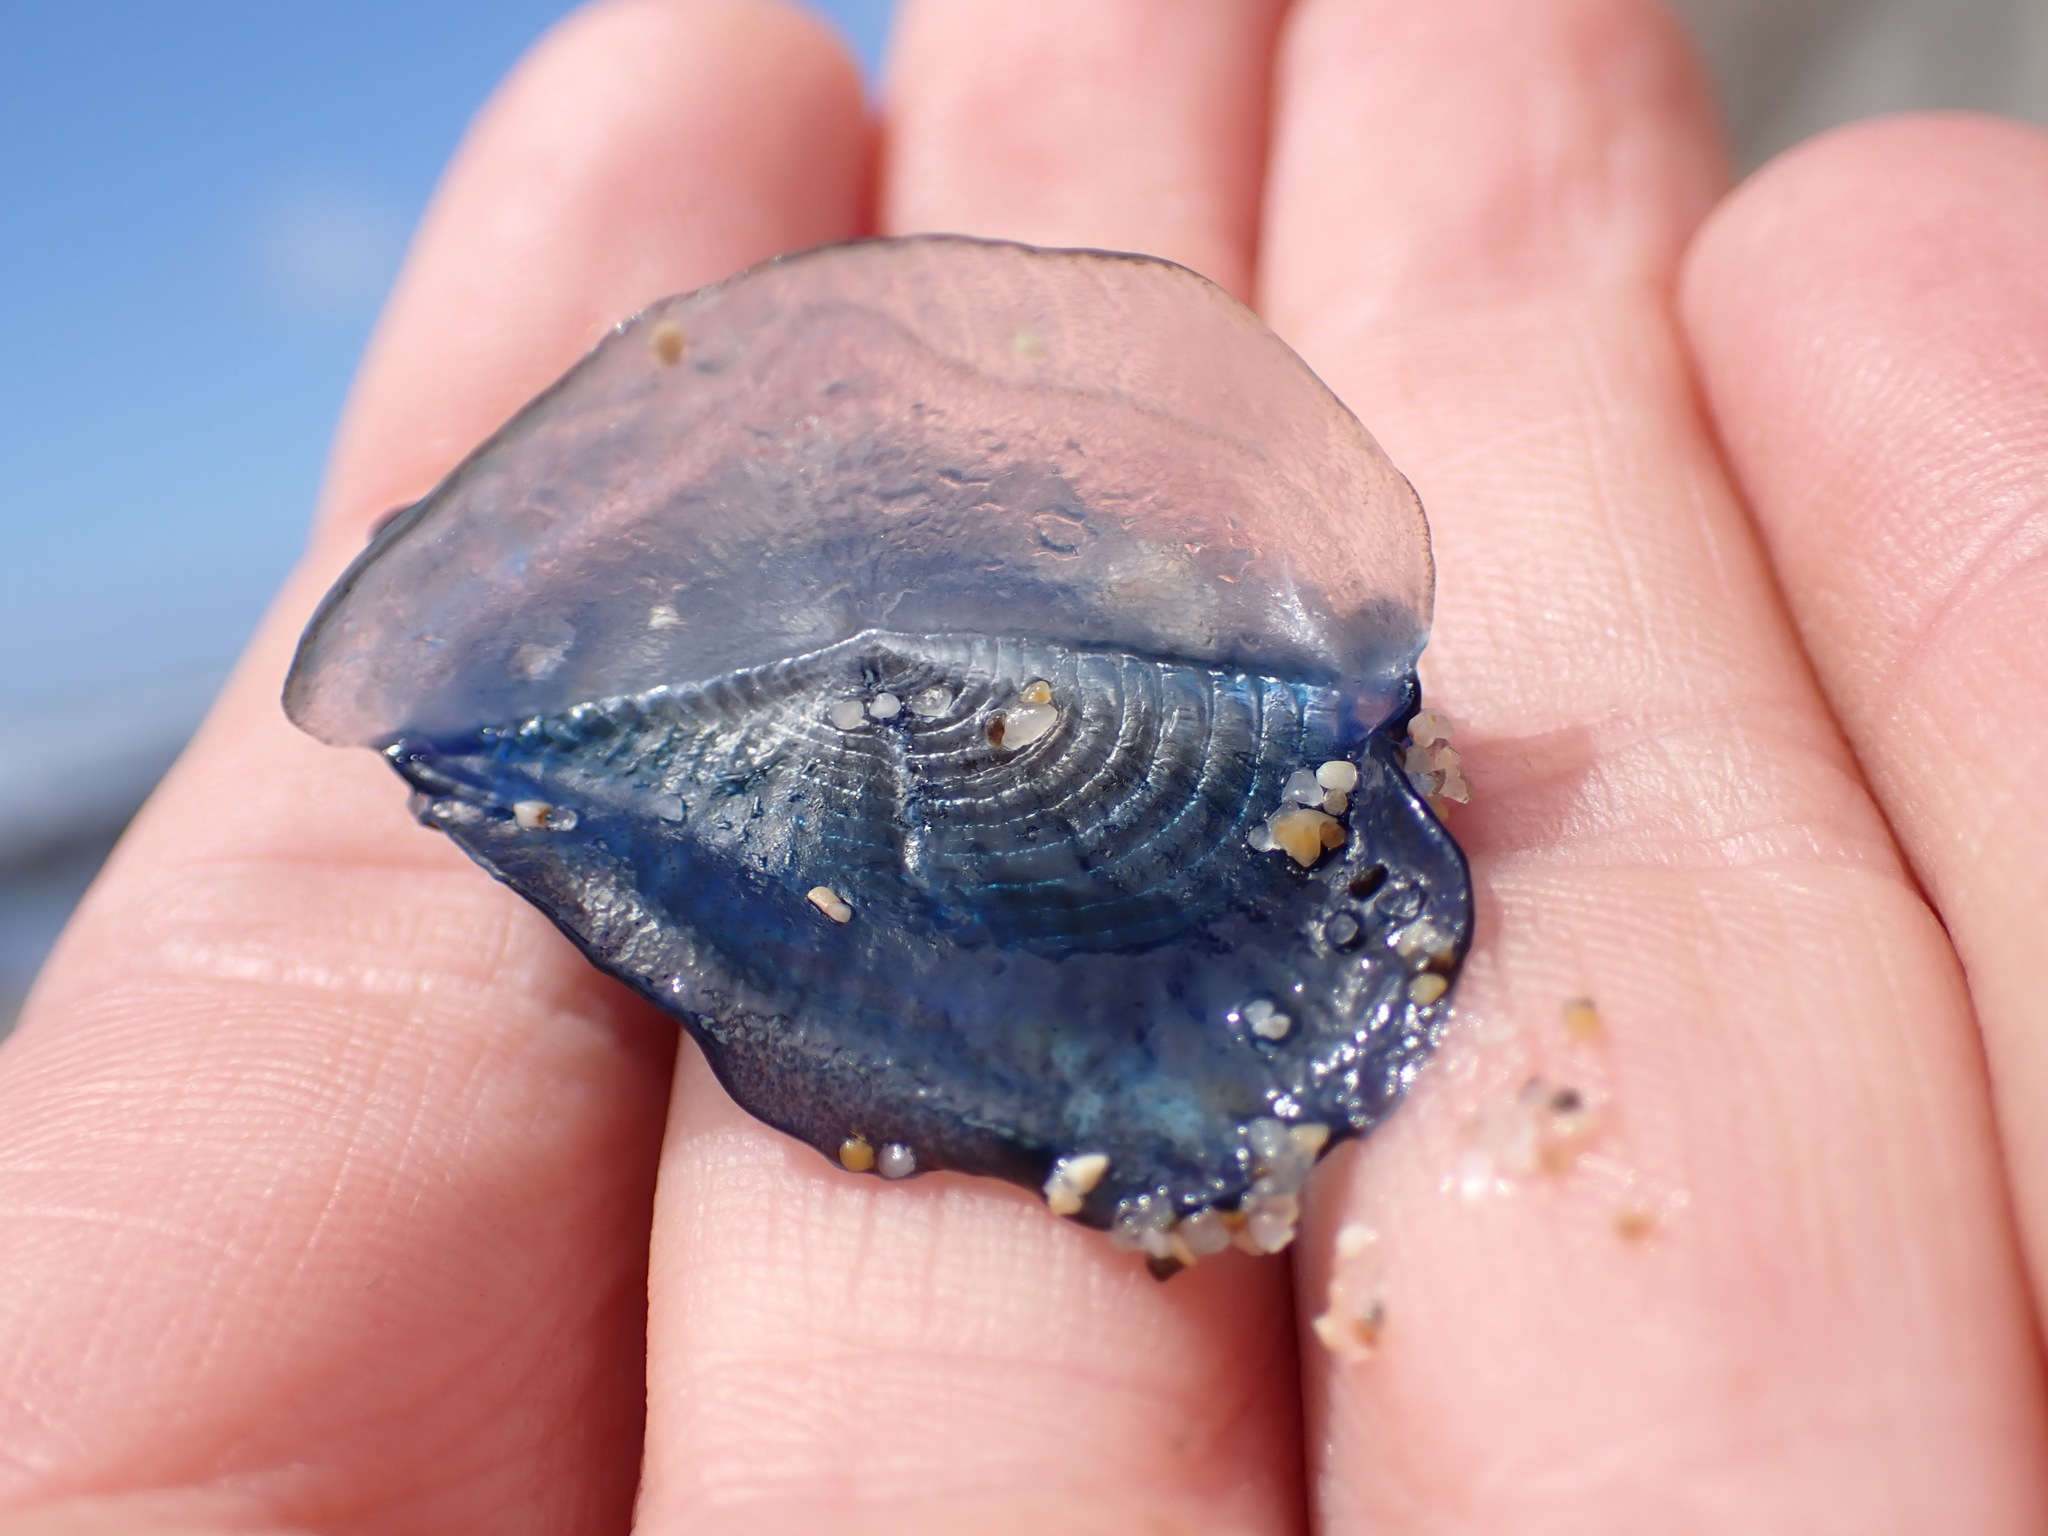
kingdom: Animalia
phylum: Cnidaria
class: Hydrozoa
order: Anthoathecata
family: Porpitidae
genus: Velella
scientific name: Velella velella
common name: By-the-wind-sailor
